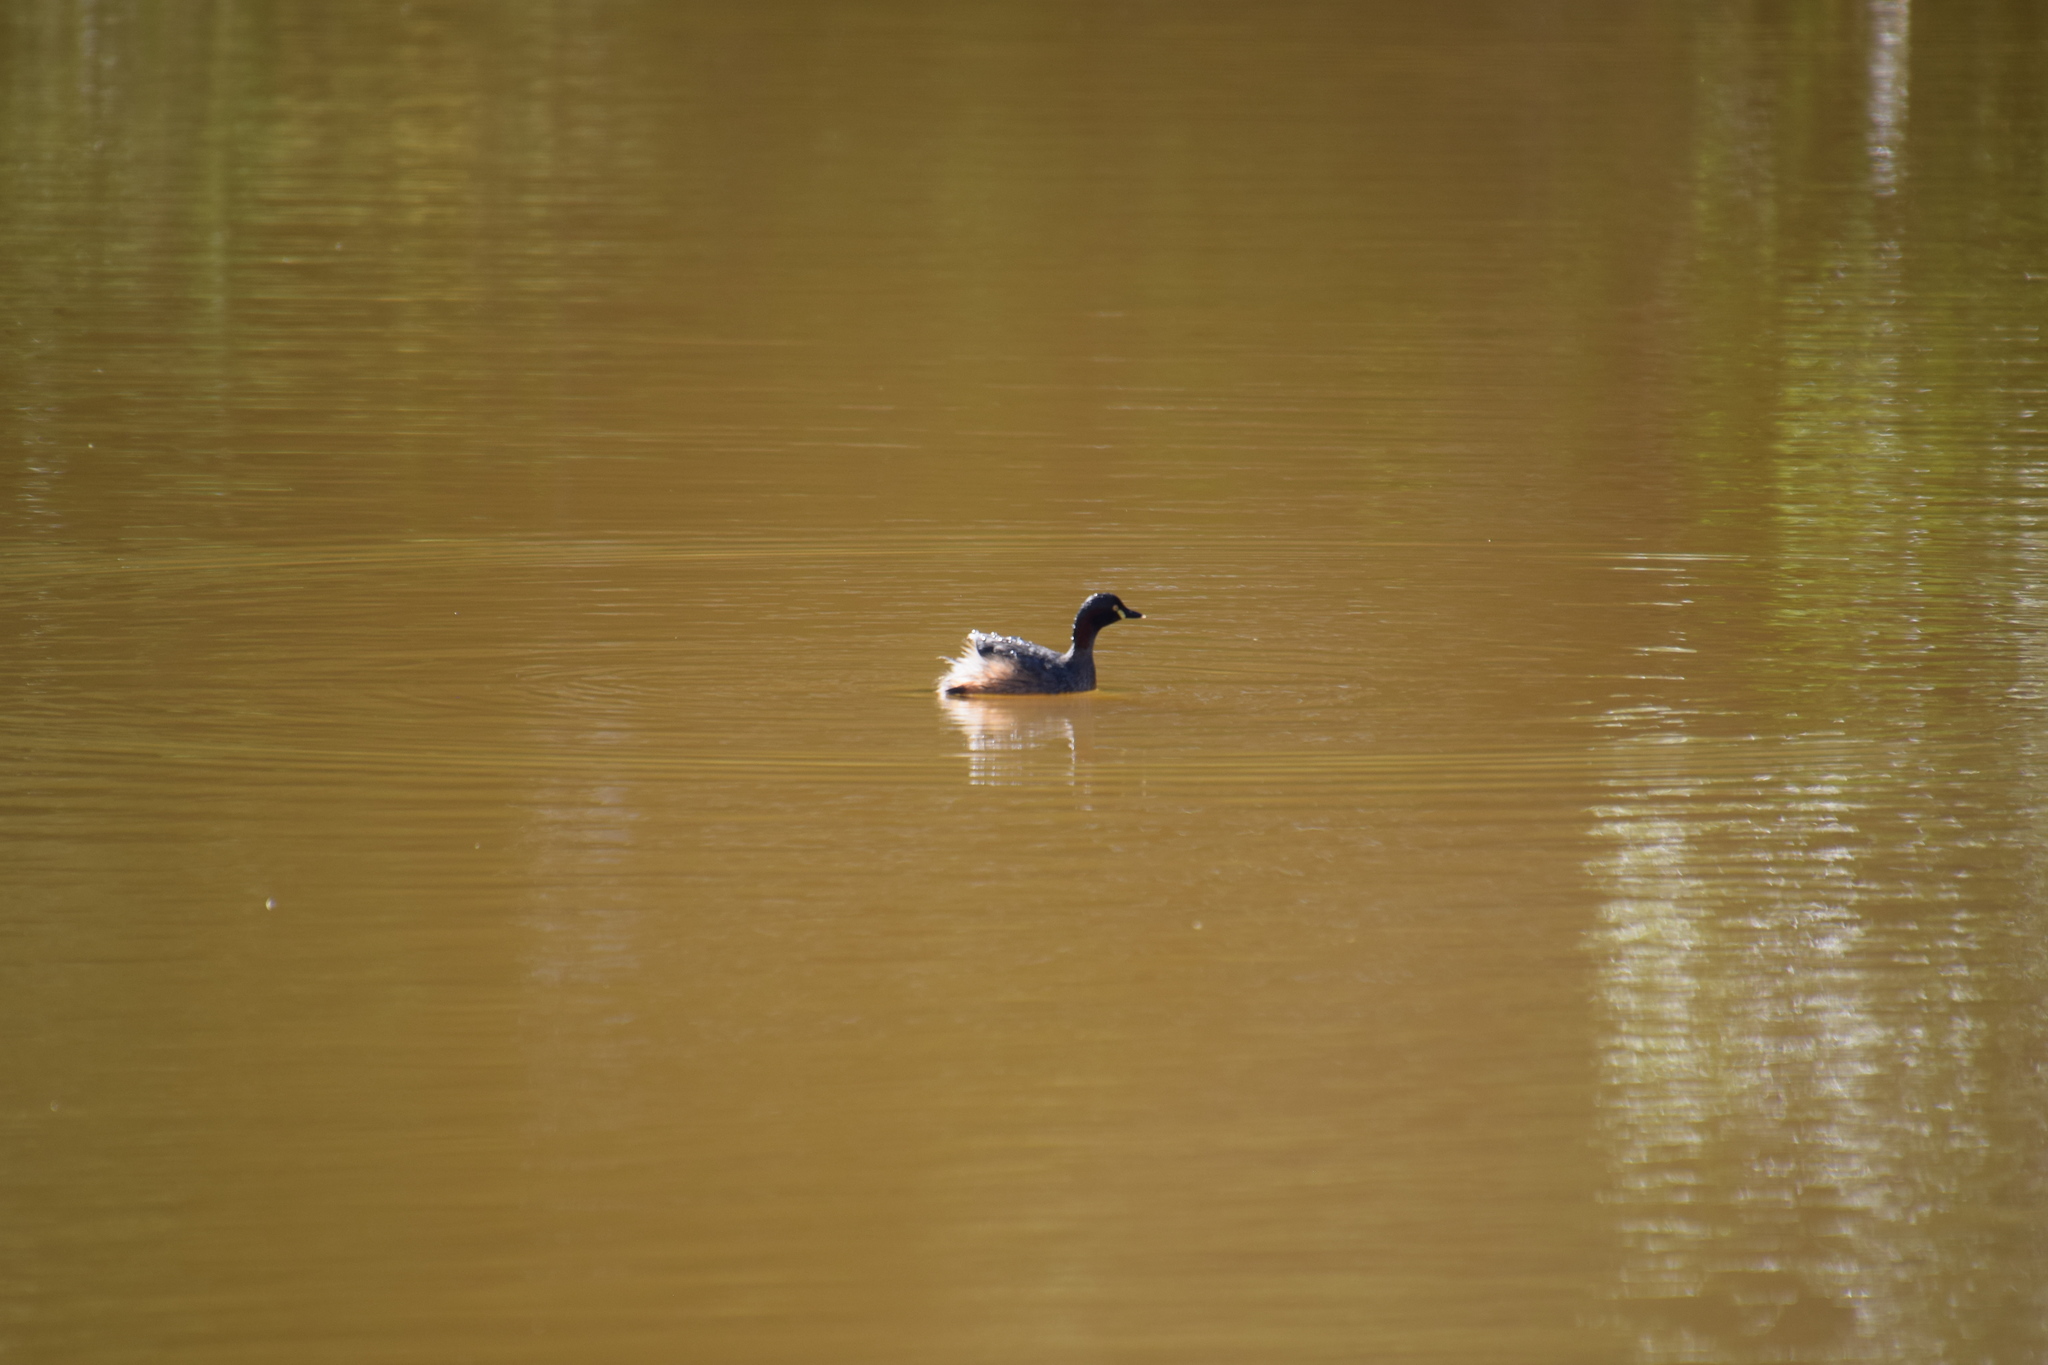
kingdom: Animalia
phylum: Chordata
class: Aves
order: Podicipediformes
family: Podicipedidae
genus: Tachybaptus
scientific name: Tachybaptus novaehollandiae
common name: Australasian grebe
